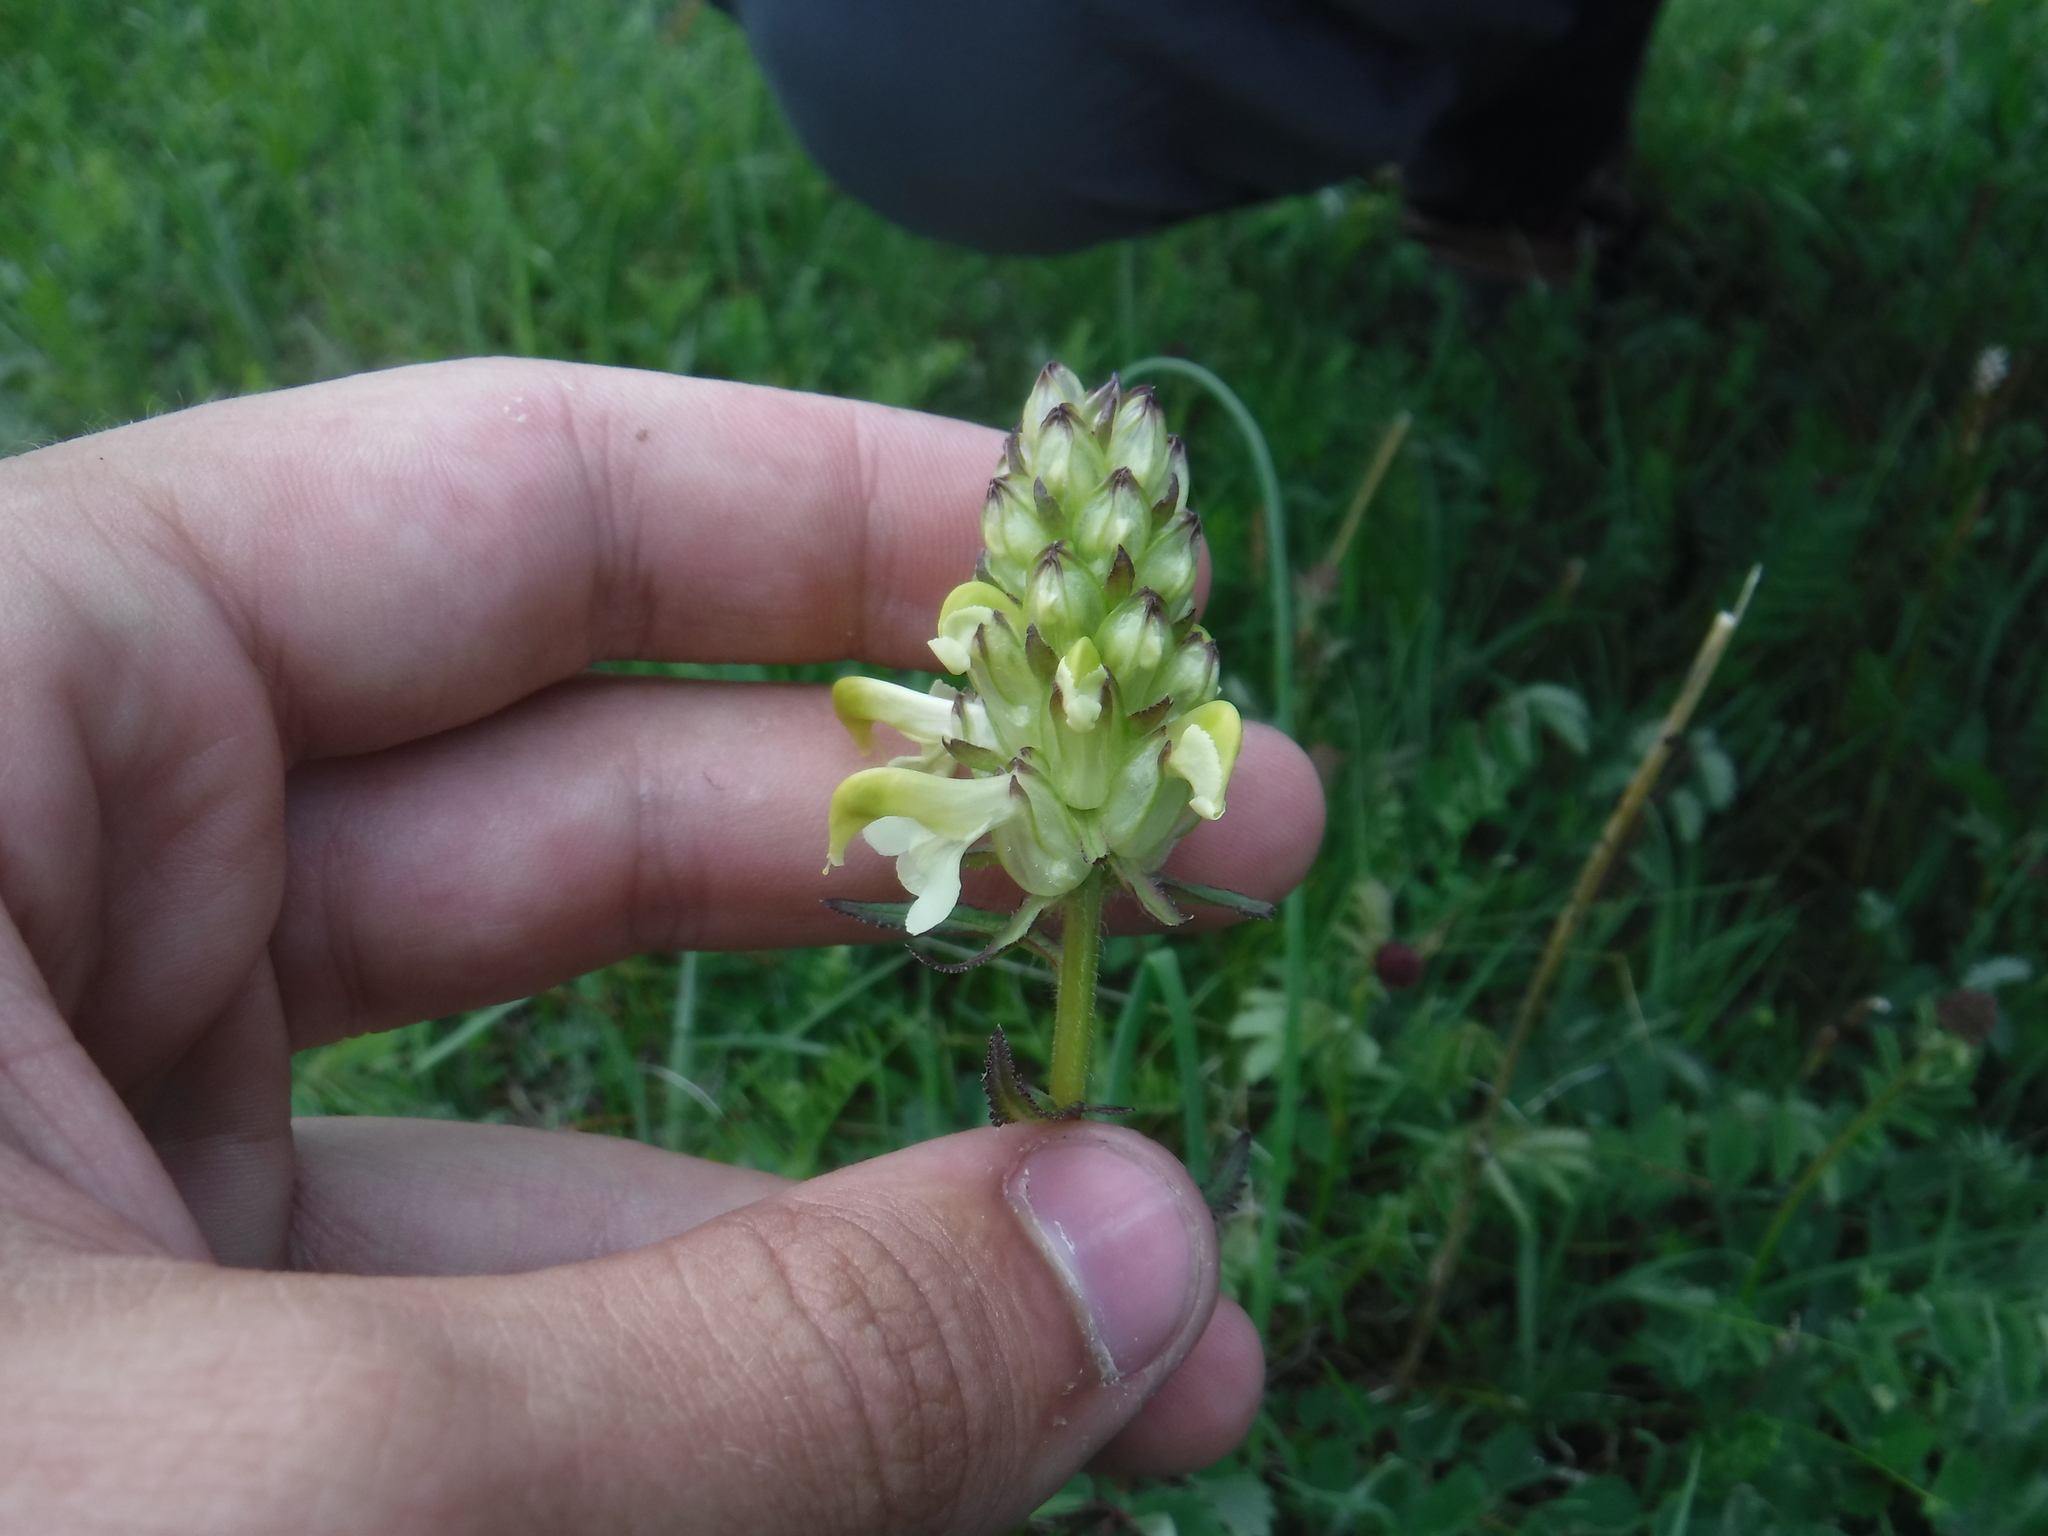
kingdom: Plantae
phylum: Tracheophyta
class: Magnoliopsida
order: Lamiales
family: Orobanchaceae
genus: Pedicularis
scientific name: Pedicularis compacta
